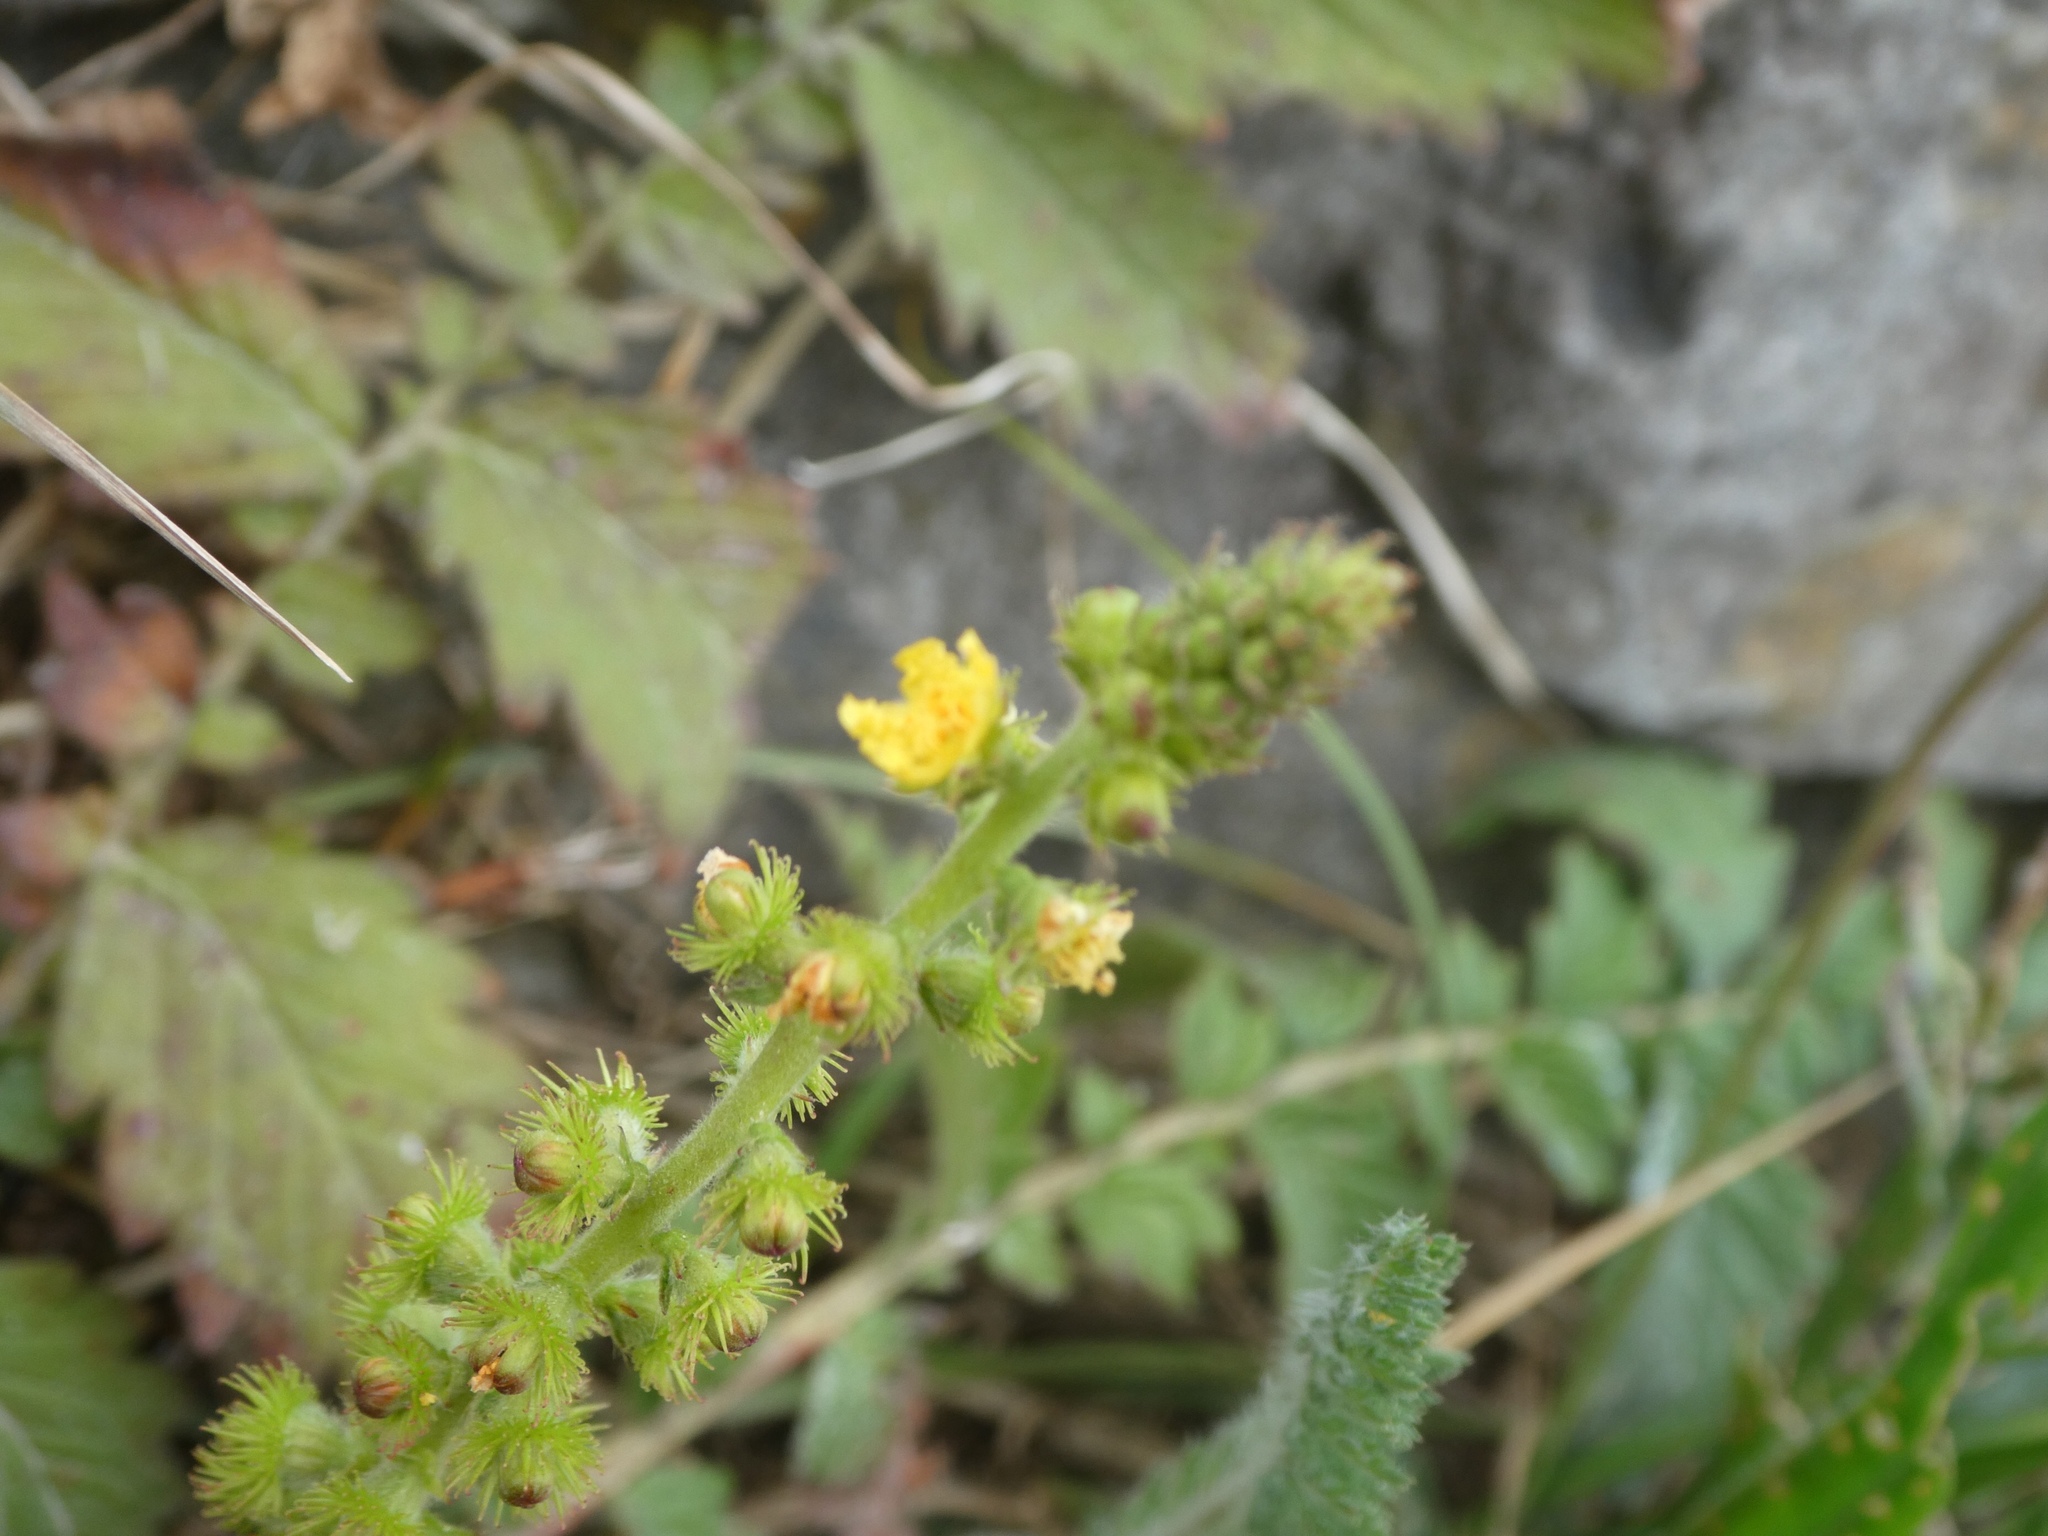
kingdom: Plantae
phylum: Tracheophyta
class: Magnoliopsida
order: Rosales
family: Rosaceae
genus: Agrimonia
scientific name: Agrimonia eupatoria
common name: Agrimony
